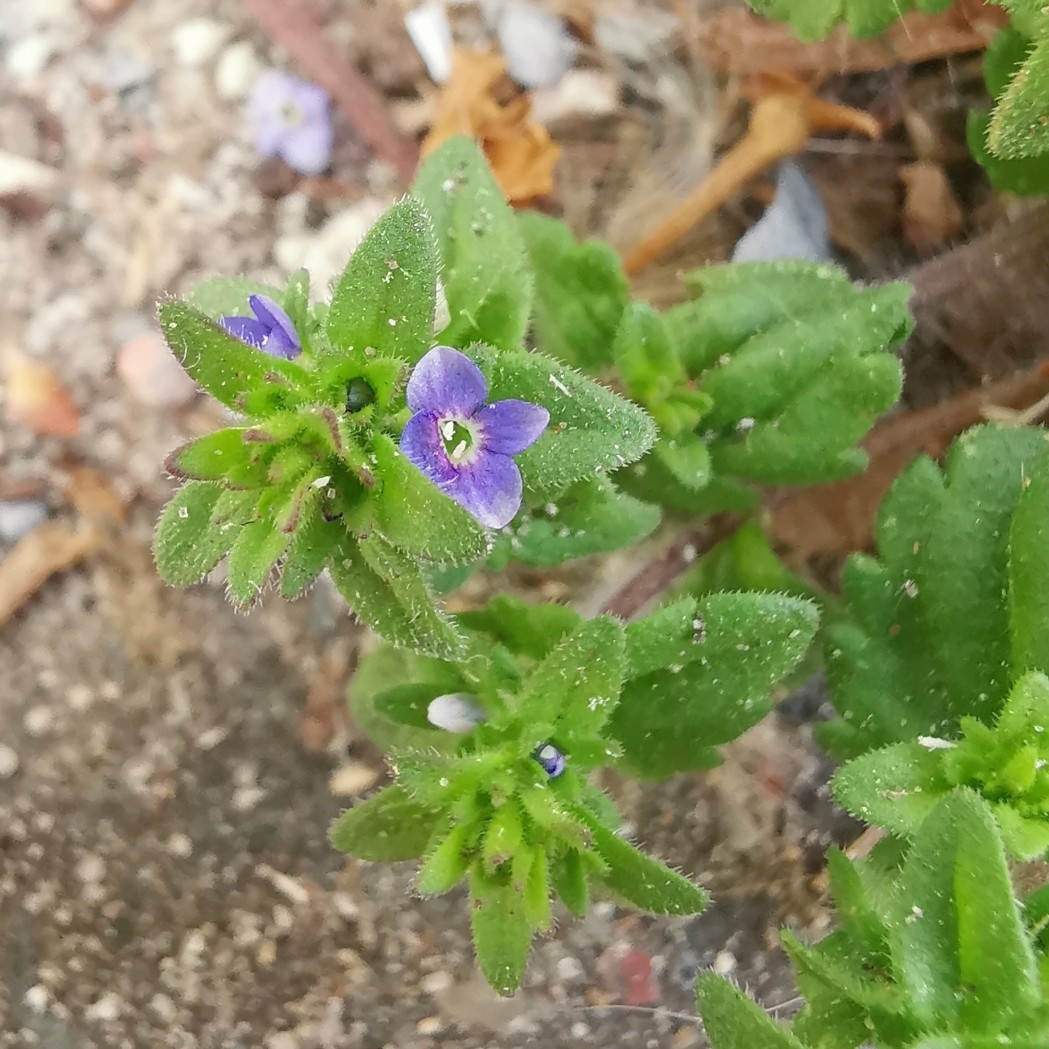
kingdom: Plantae
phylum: Tracheophyta
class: Magnoliopsida
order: Lamiales
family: Plantaginaceae
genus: Veronica
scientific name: Veronica arvensis
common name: Corn speedwell
